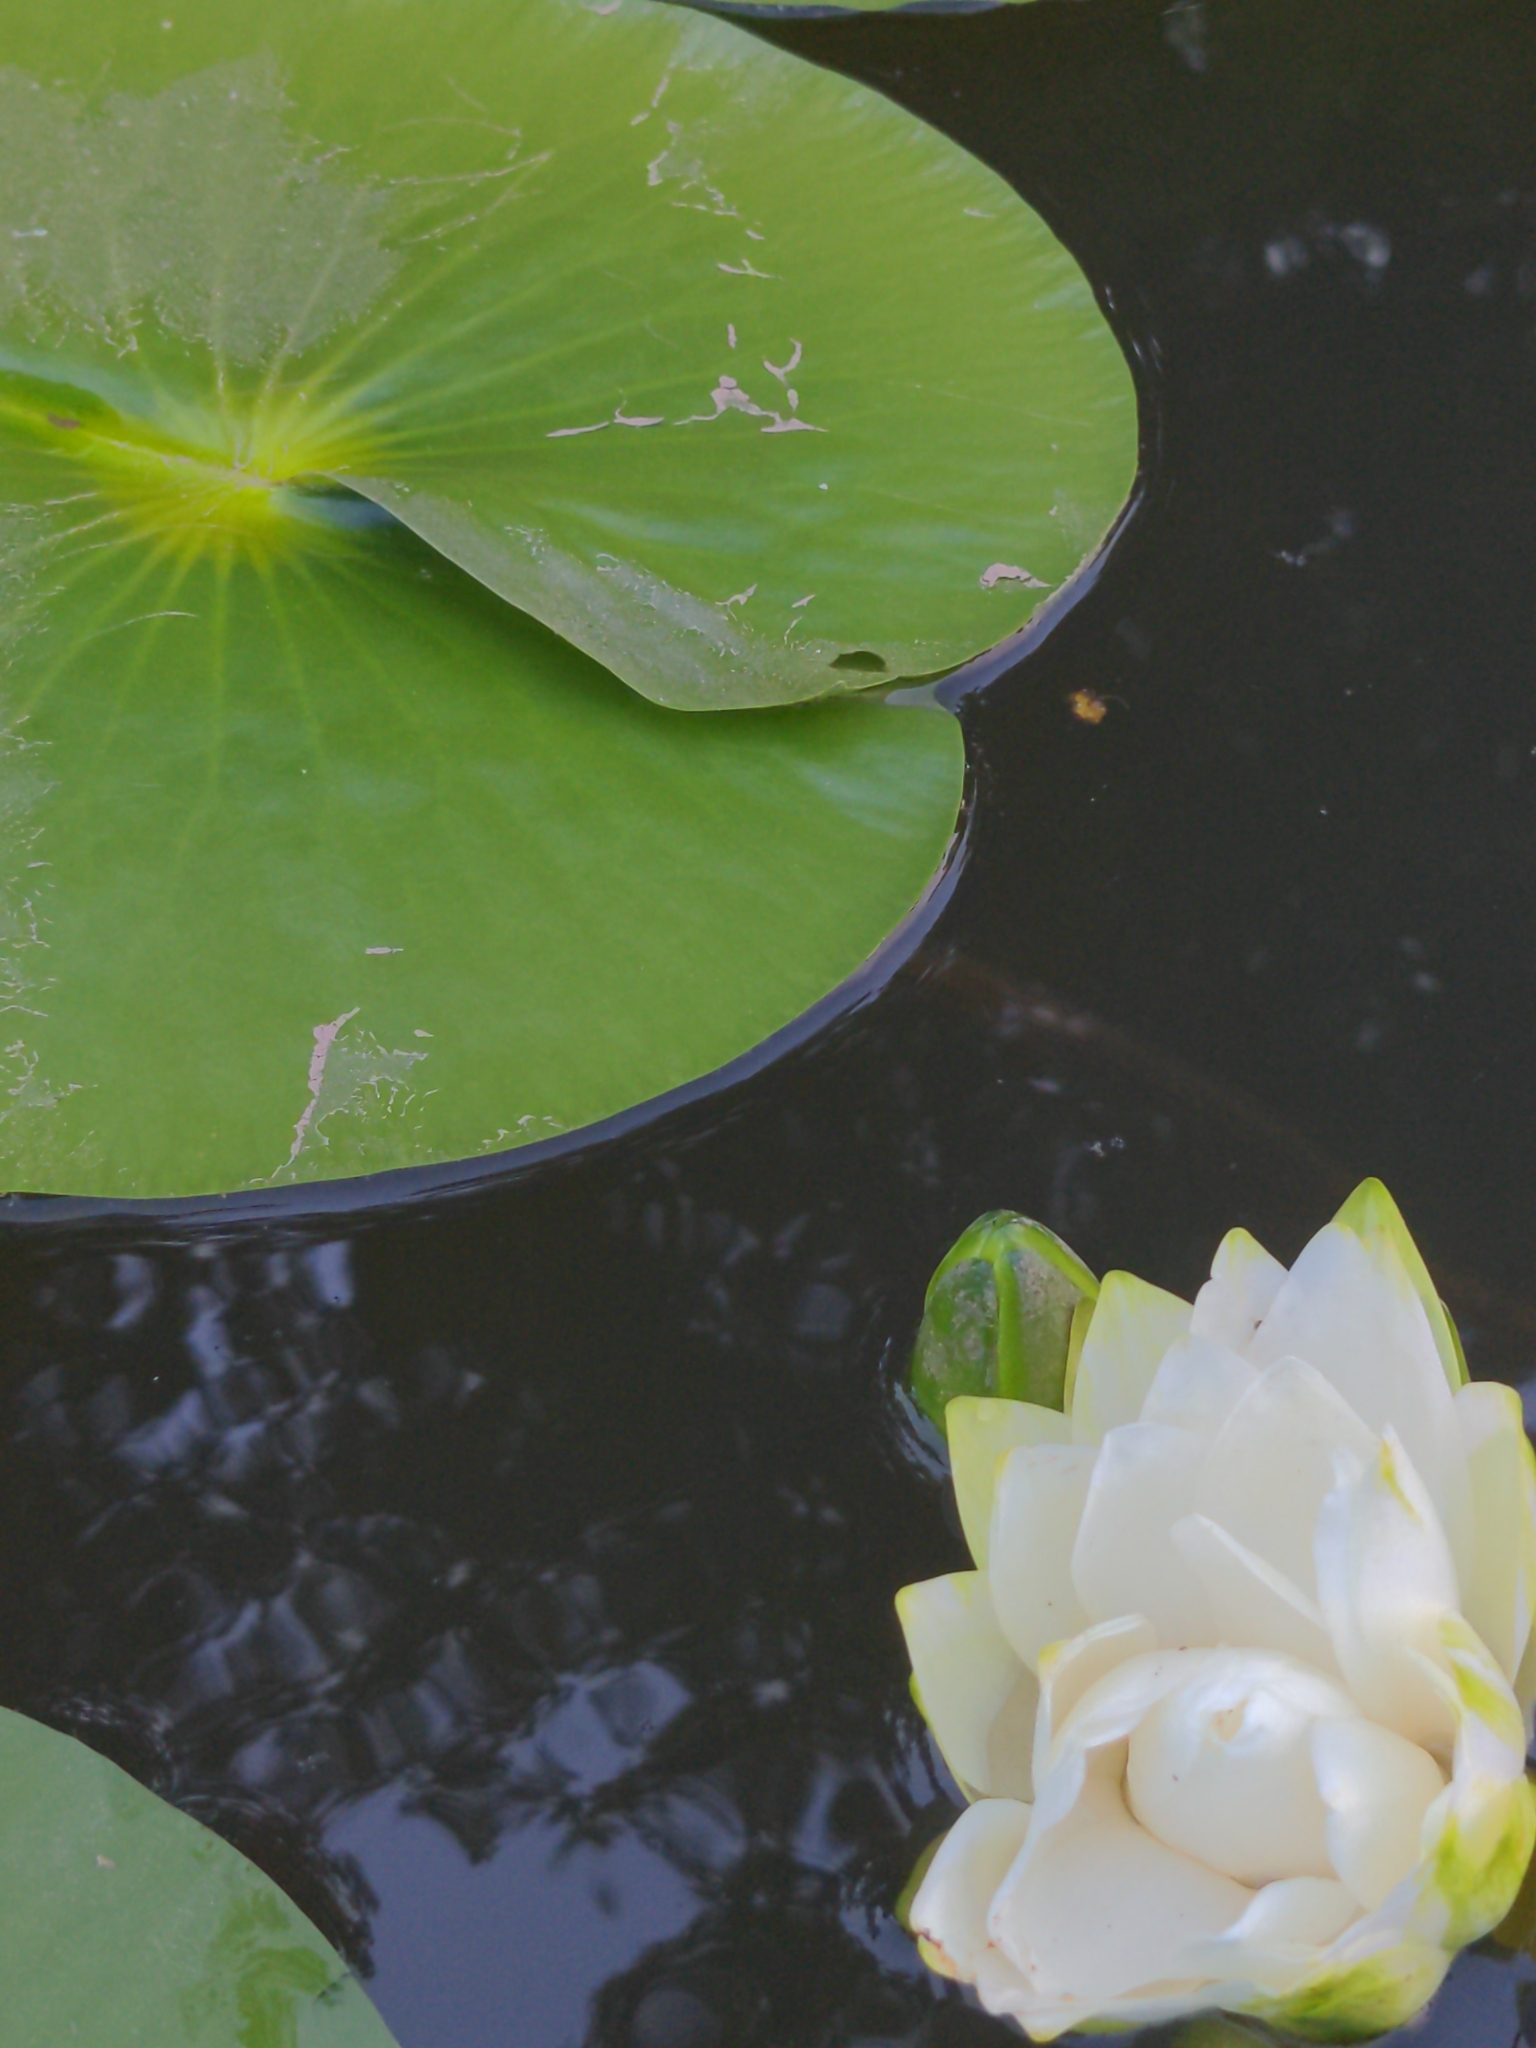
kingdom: Plantae
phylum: Tracheophyta
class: Magnoliopsida
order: Nymphaeales
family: Nymphaeaceae
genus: Nymphaea
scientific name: Nymphaea odorata
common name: Fragrant water-lily
